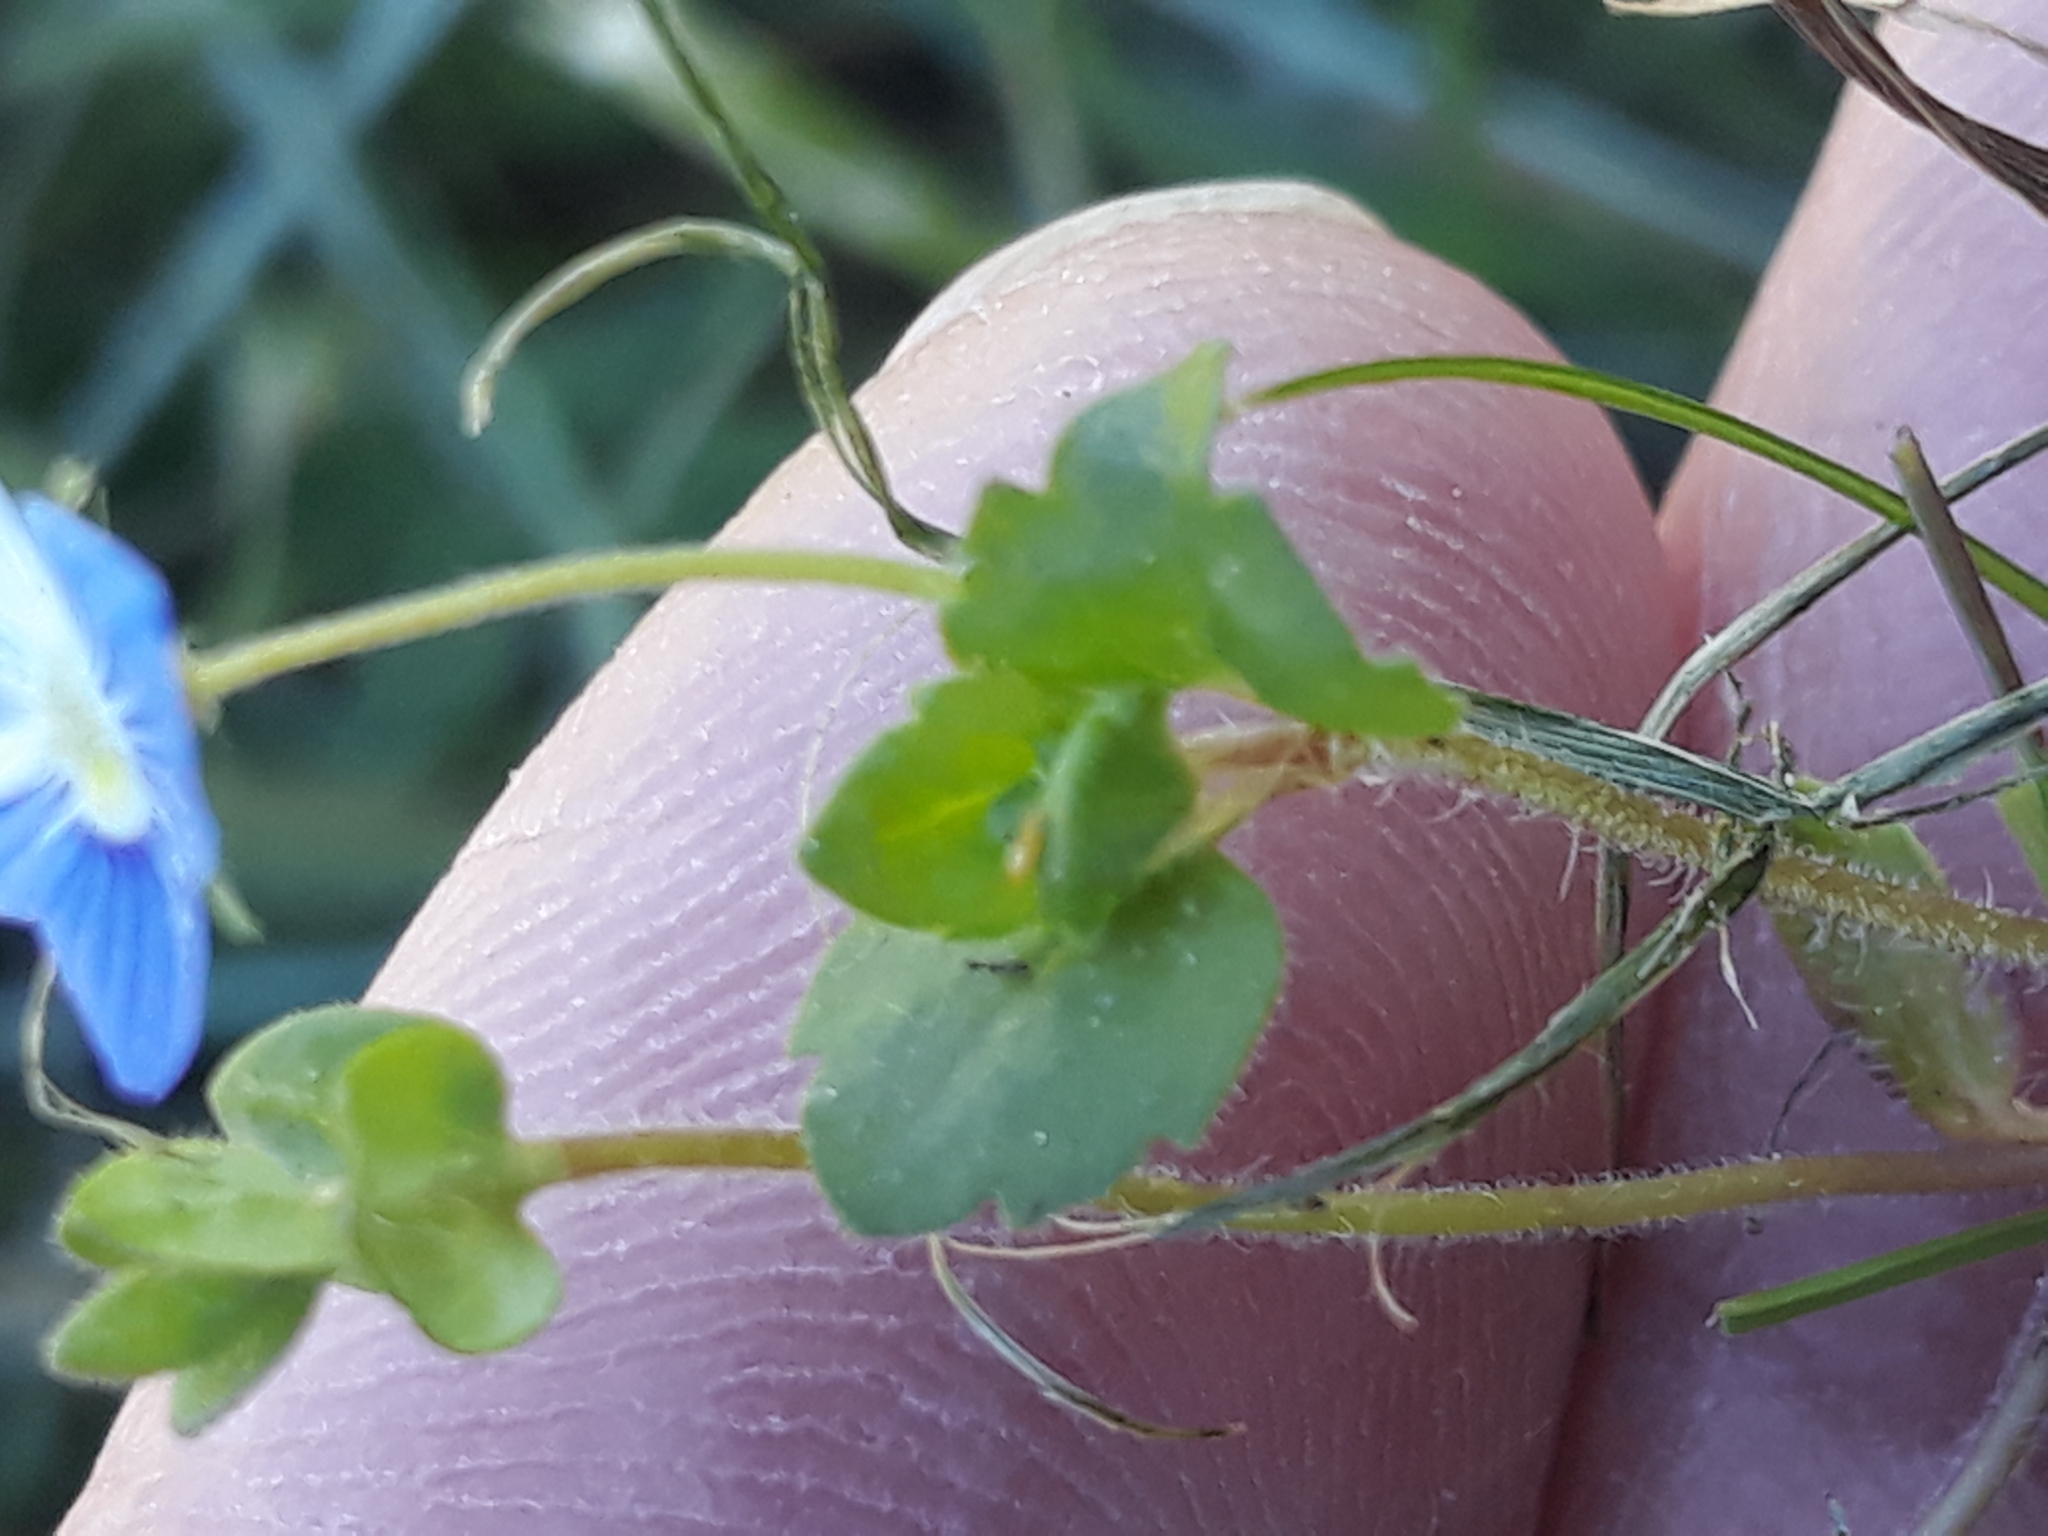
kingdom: Plantae
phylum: Tracheophyta
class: Magnoliopsida
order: Lamiales
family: Plantaginaceae
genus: Veronica
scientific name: Veronica persica
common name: Common field-speedwell
